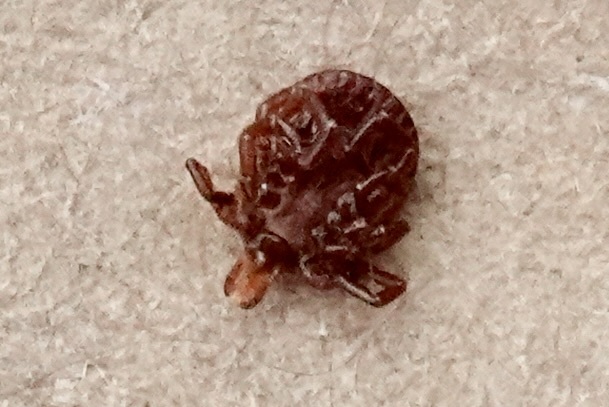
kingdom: Animalia
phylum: Arthropoda
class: Arachnida
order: Ixodida
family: Ixodidae
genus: Amblyomma
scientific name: Amblyomma americanum
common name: Lone star tick
